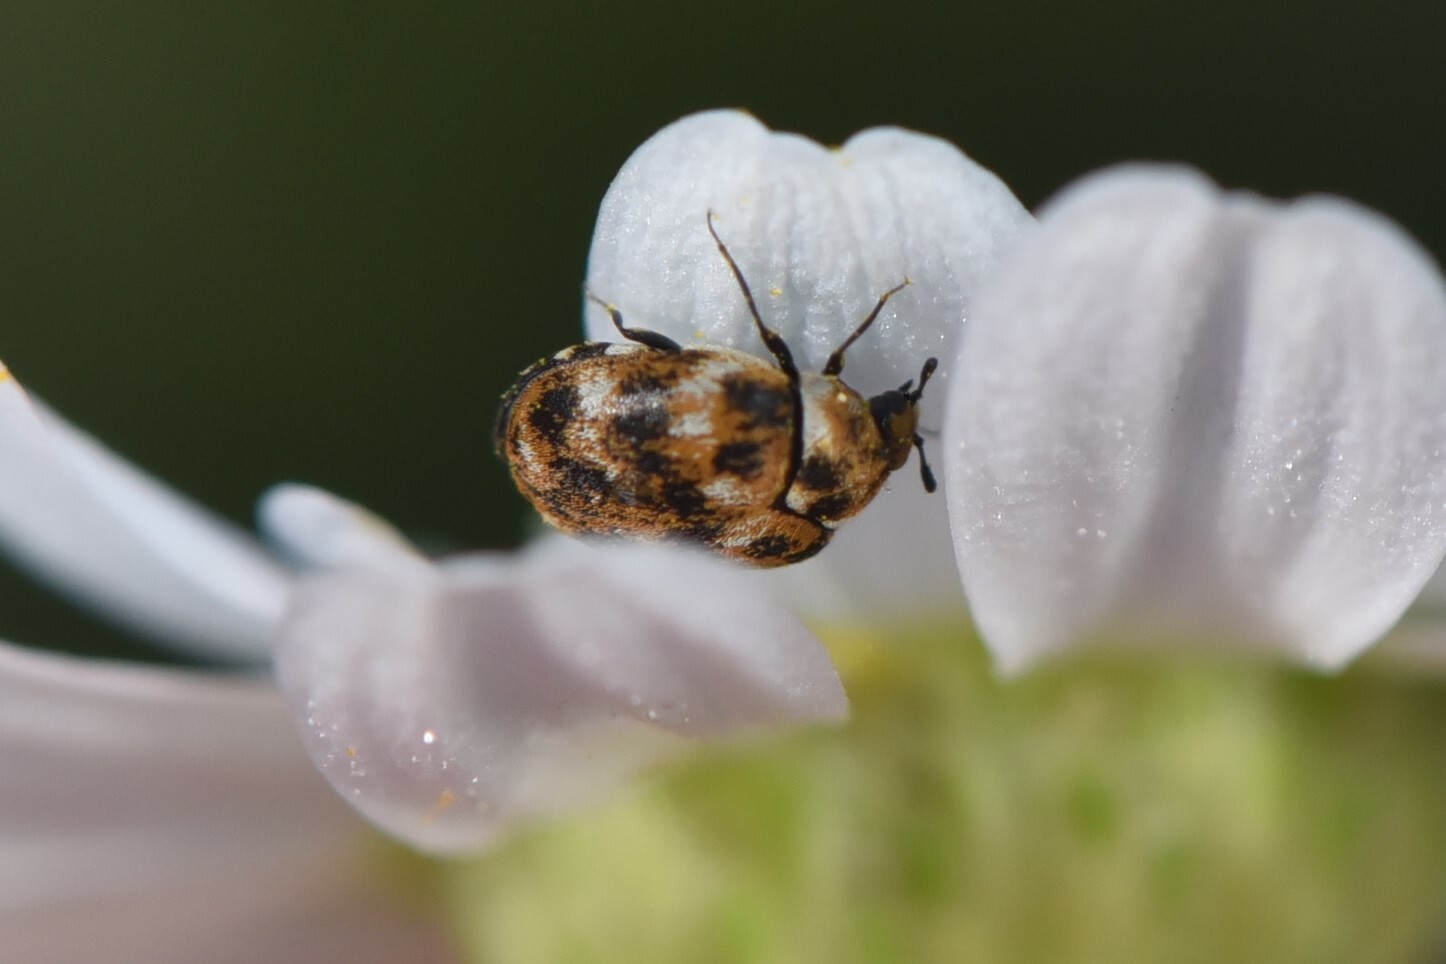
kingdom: Animalia
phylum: Arthropoda
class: Insecta
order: Coleoptera
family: Dermestidae
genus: Anthrenus
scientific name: Anthrenus verbasci
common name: Varied carpet beetle
